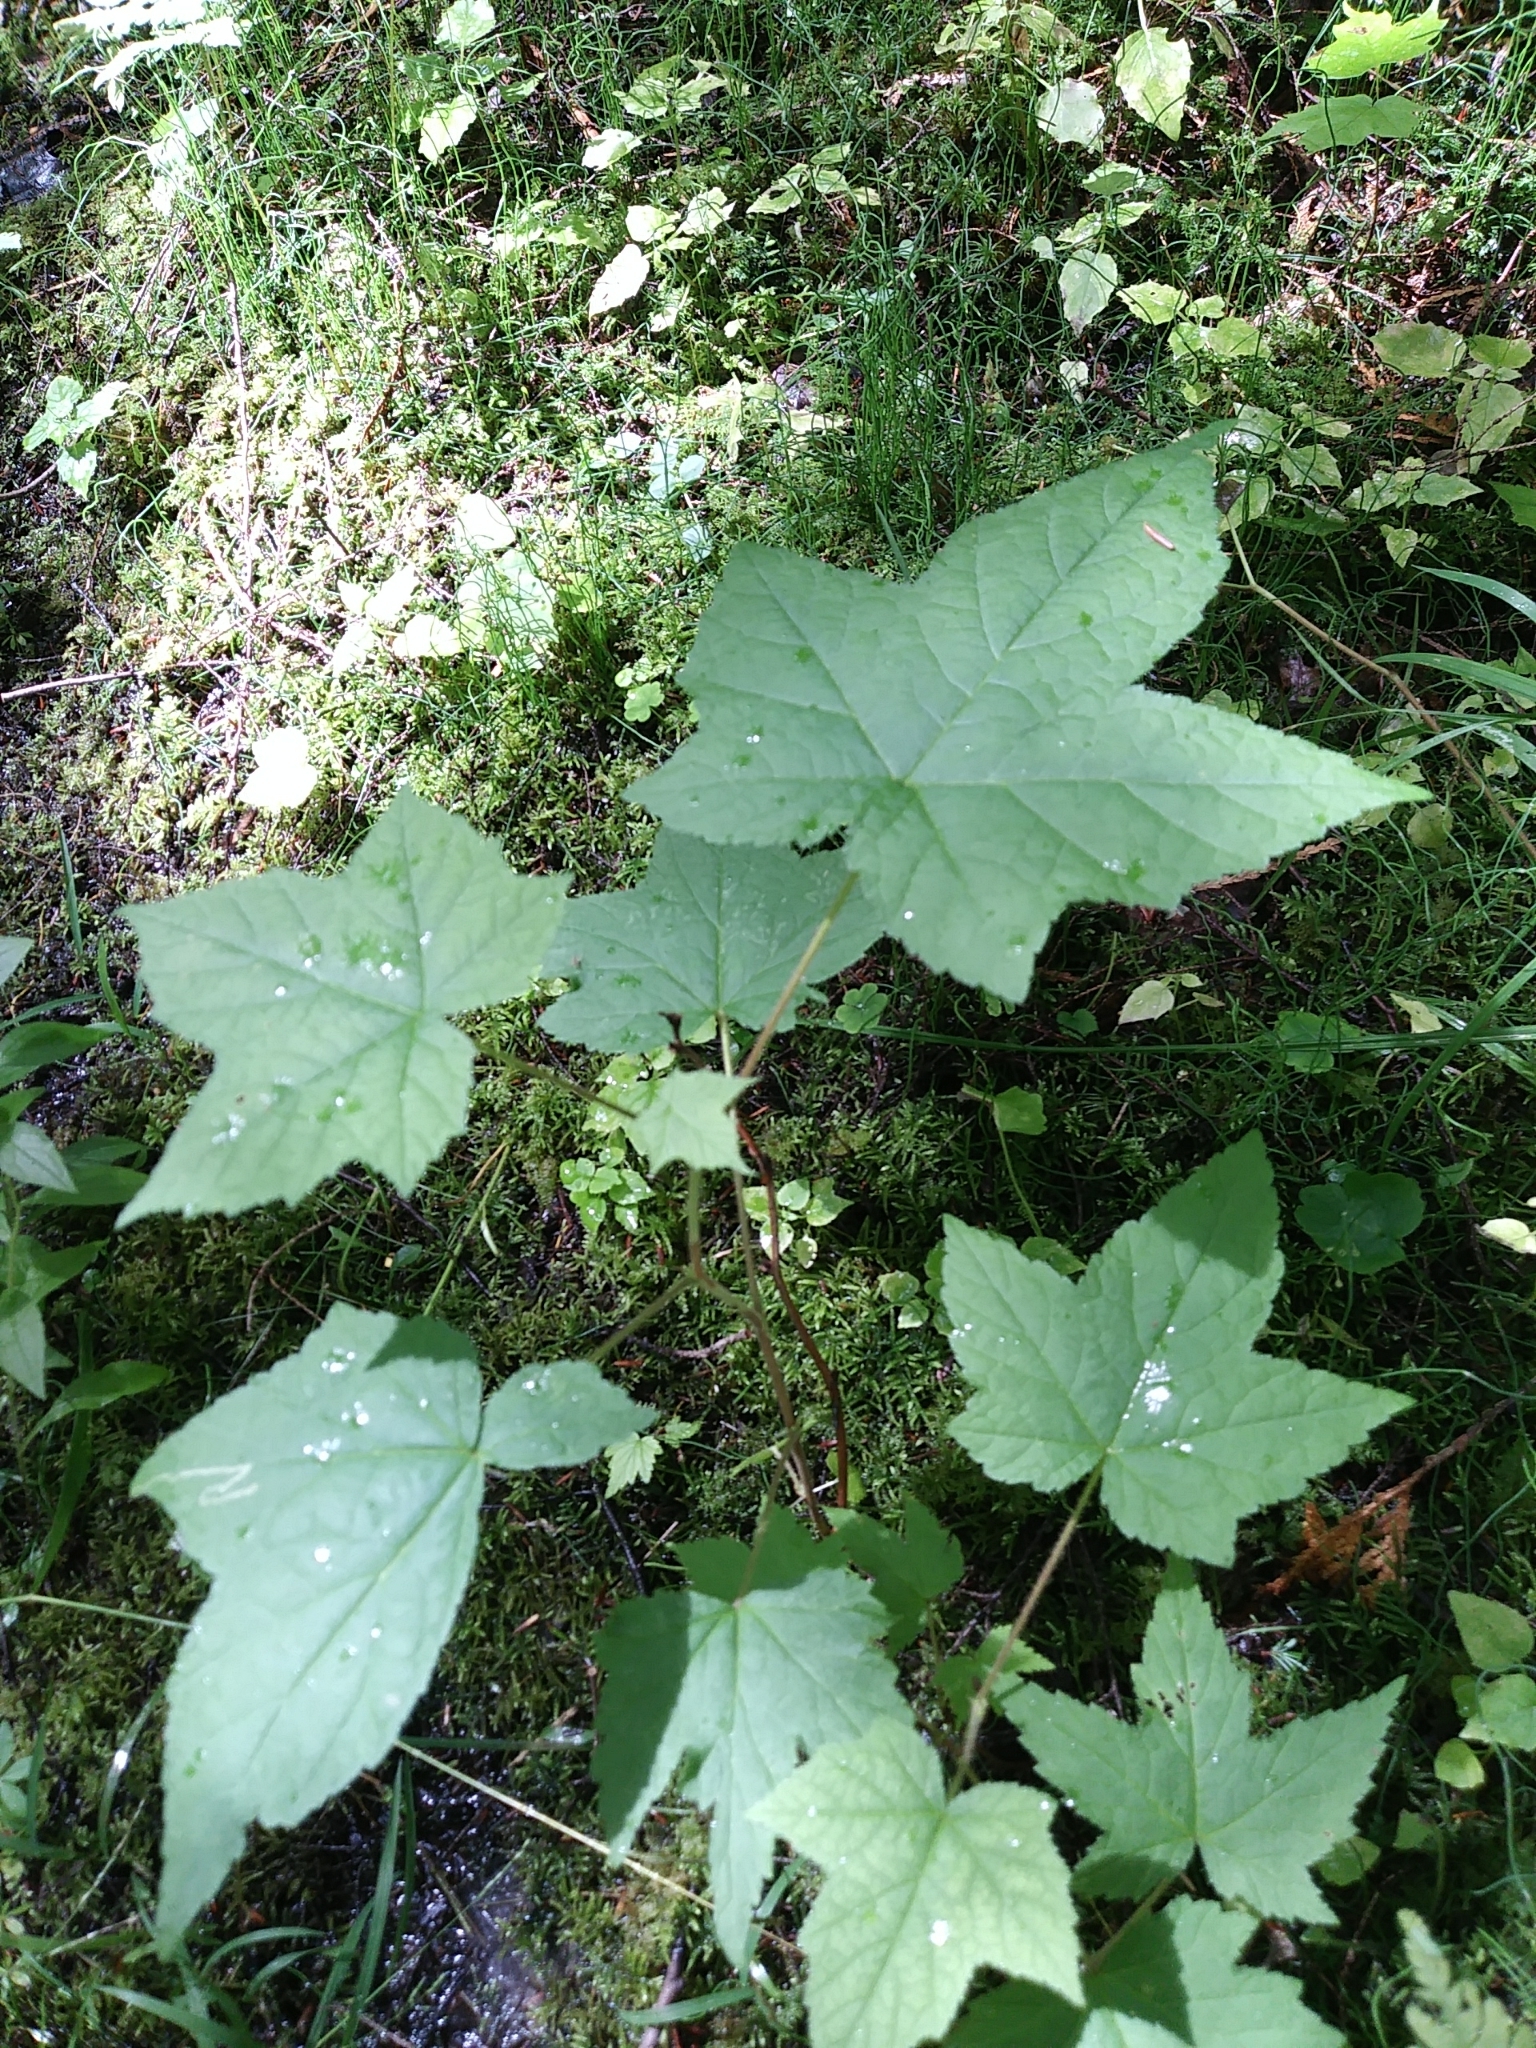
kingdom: Plantae
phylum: Tracheophyta
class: Magnoliopsida
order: Rosales
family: Rosaceae
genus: Rubus
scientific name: Rubus odoratus
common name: Purple-flowered raspberry
